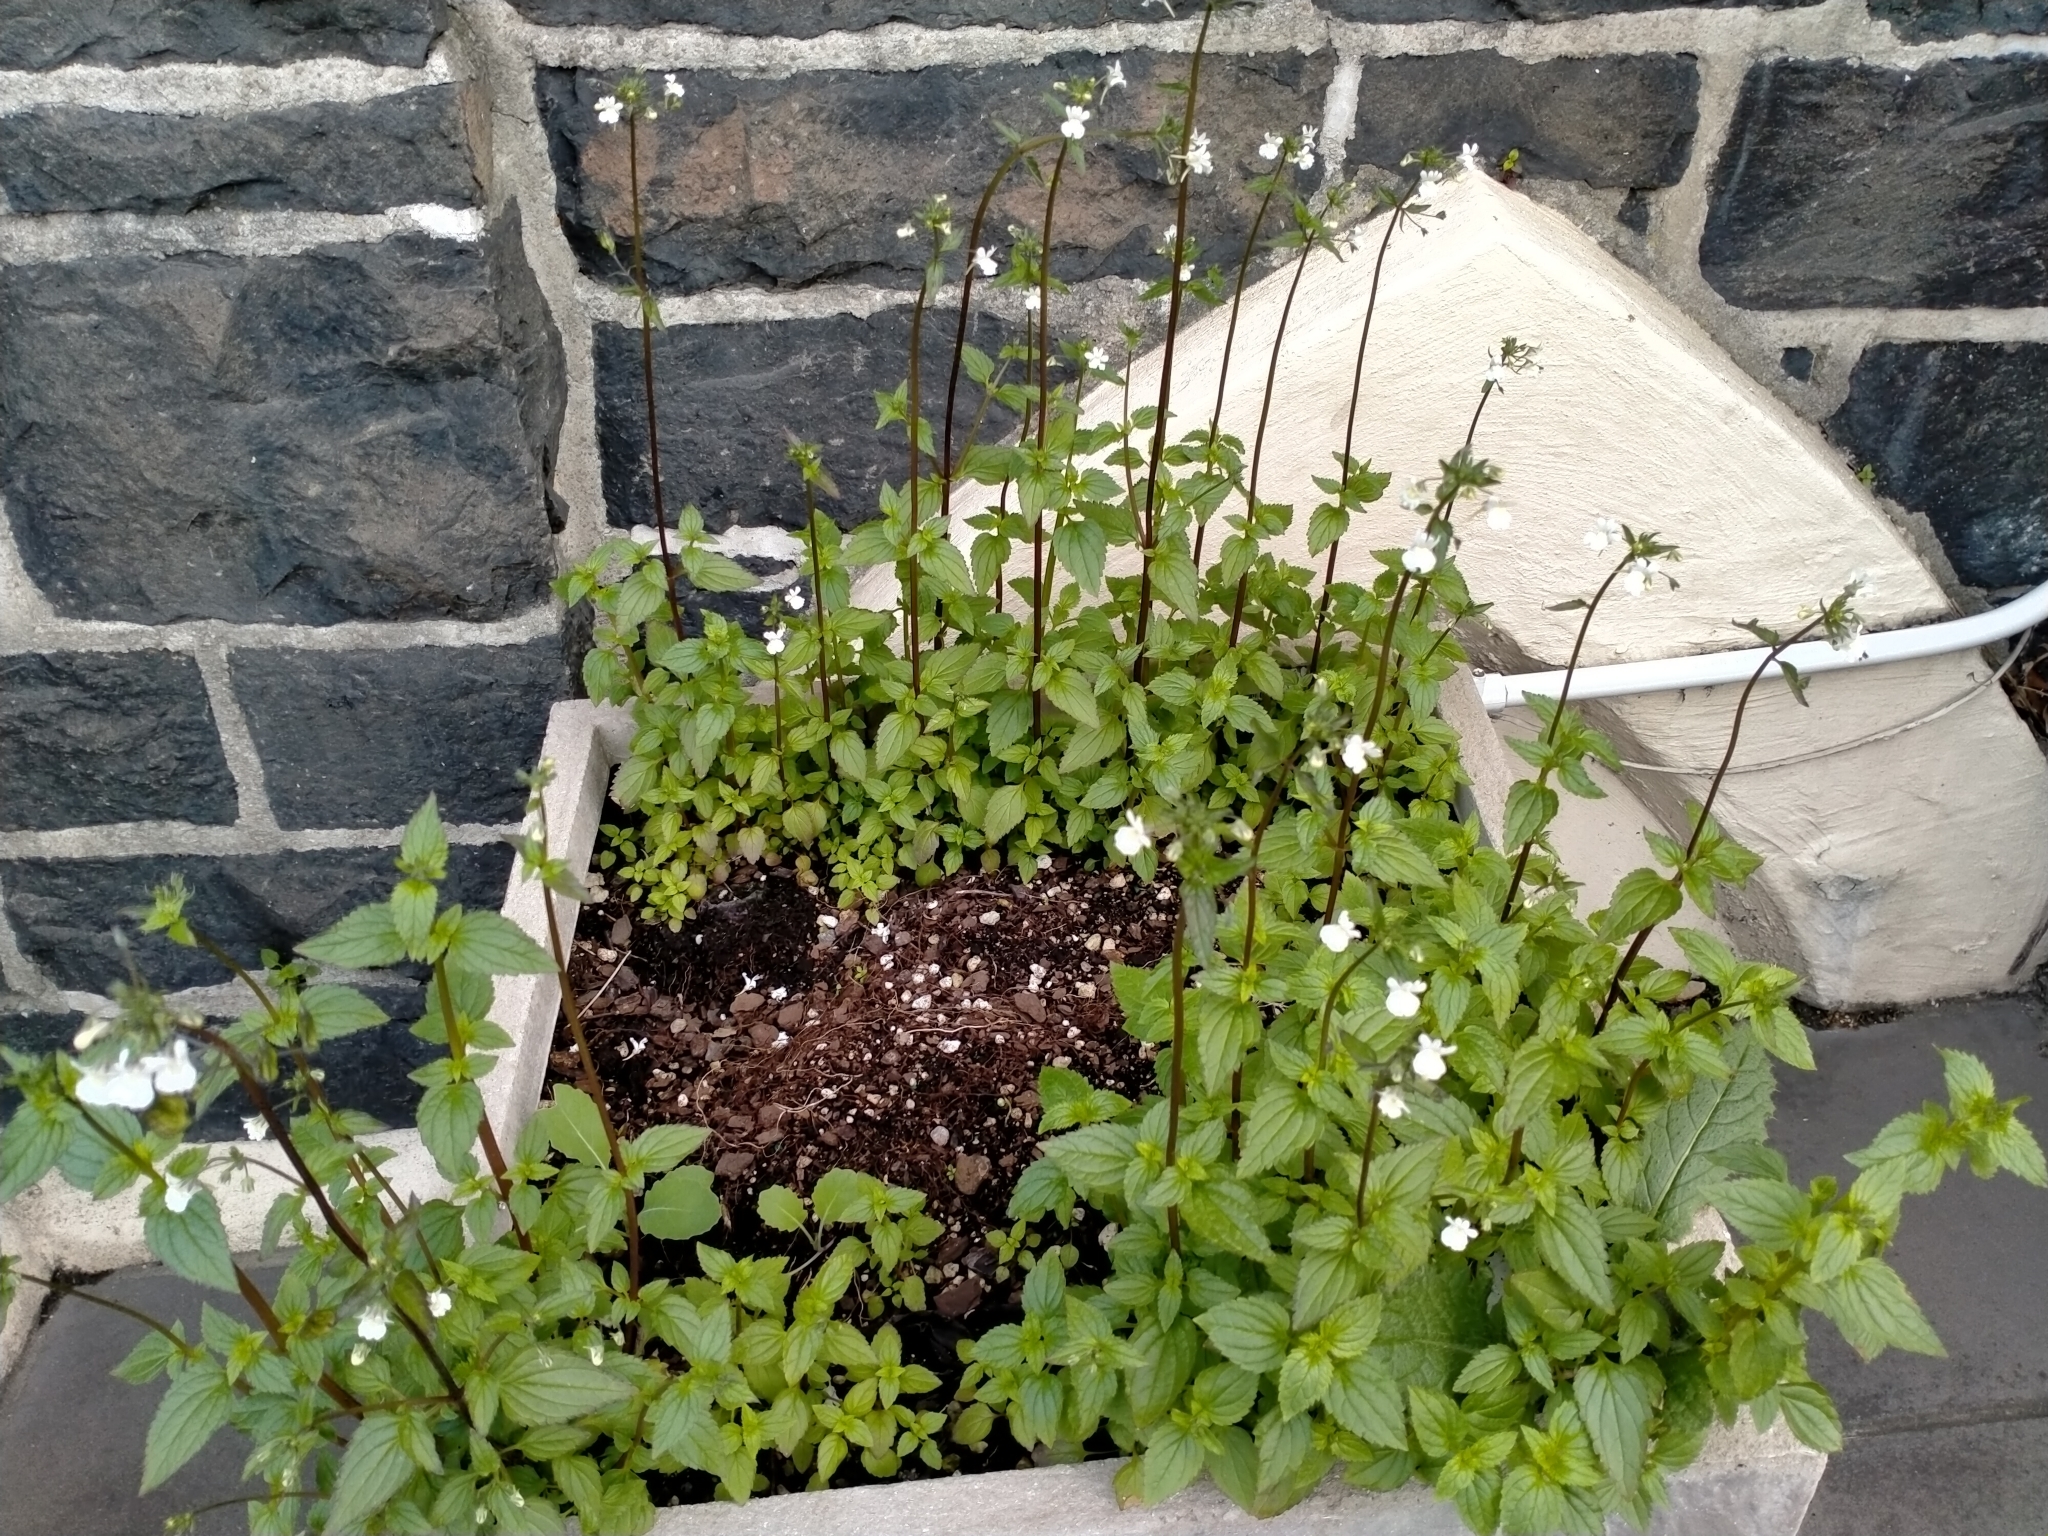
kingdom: Plantae
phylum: Tracheophyta
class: Magnoliopsida
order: Lamiales
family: Scrophulariaceae
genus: Nemesia
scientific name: Nemesia floribunda
